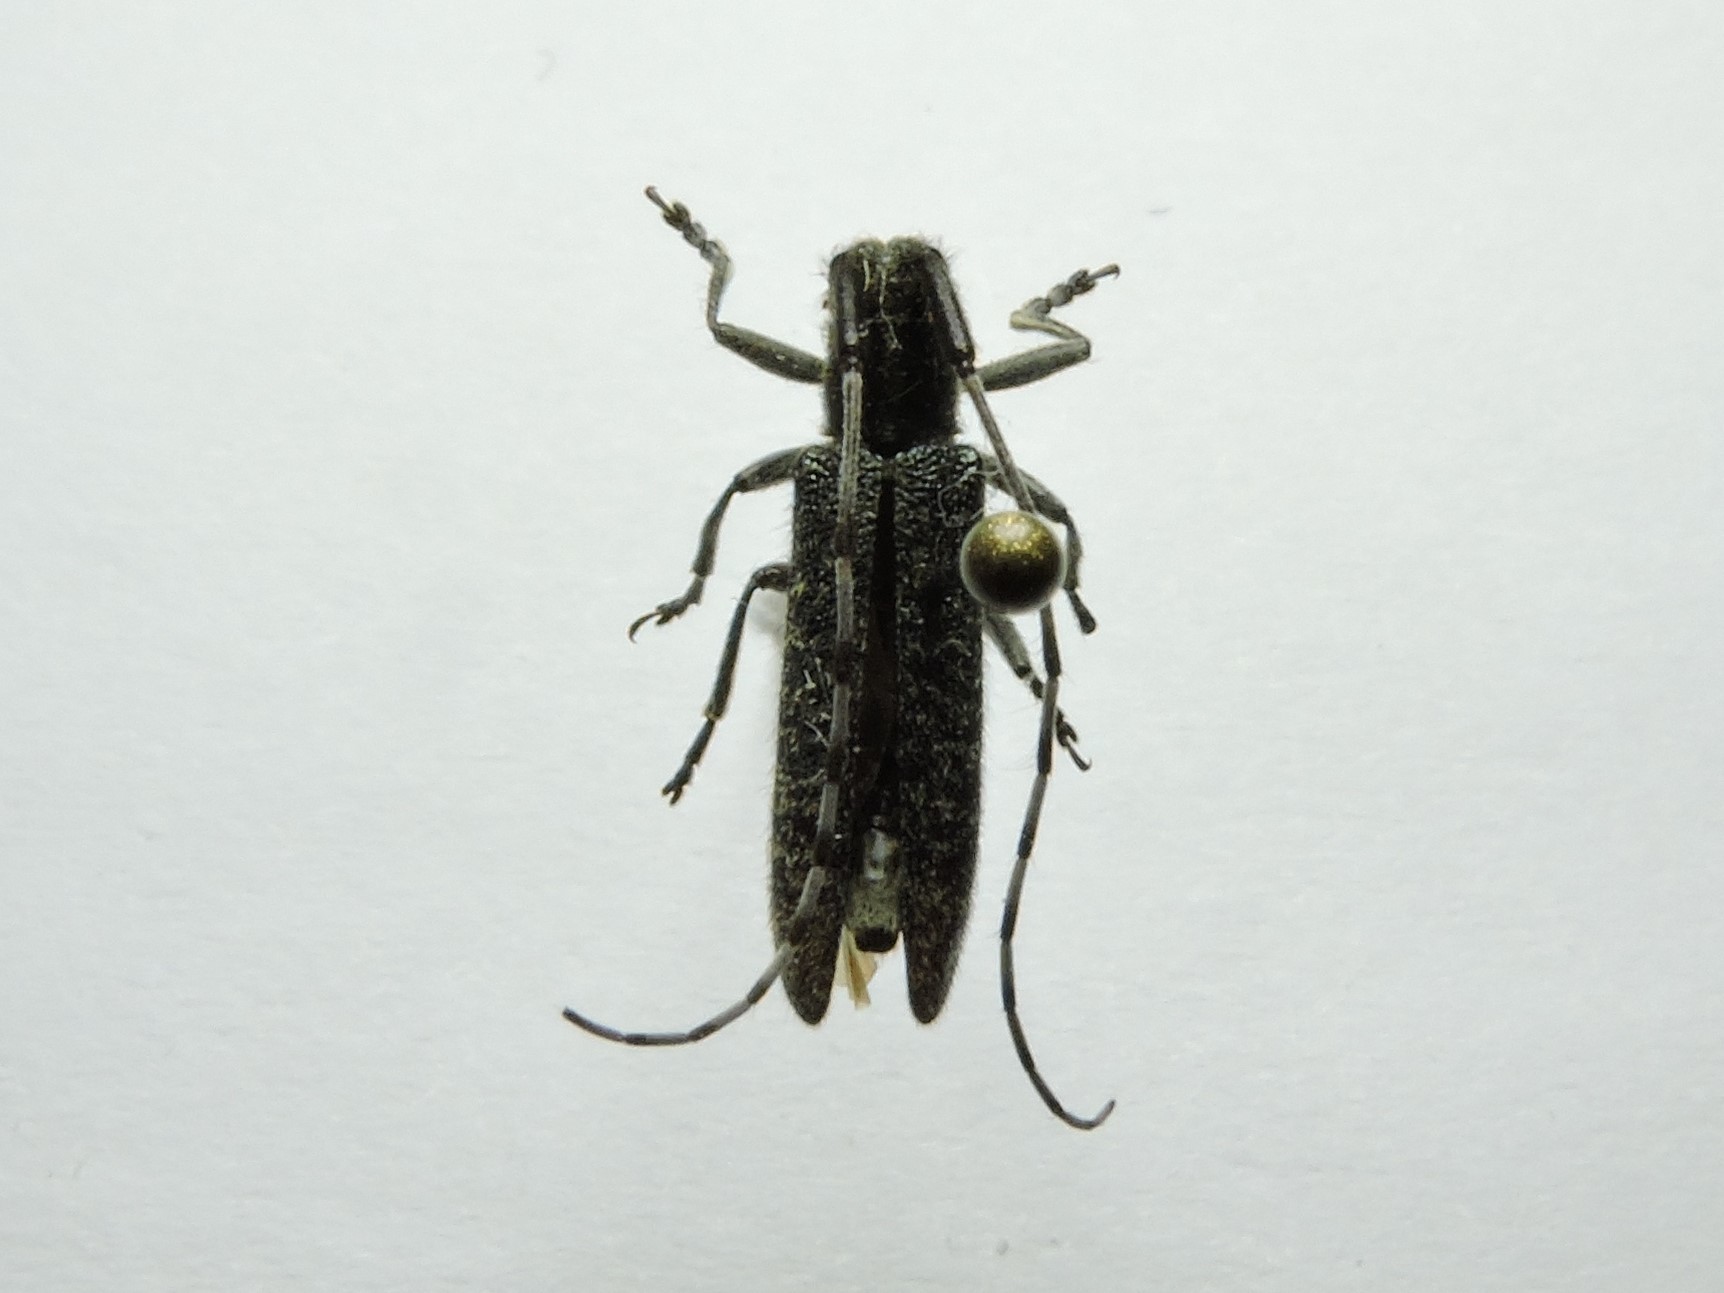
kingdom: Animalia
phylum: Arthropoda
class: Insecta
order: Coleoptera
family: Cerambycidae
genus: Agapanthia
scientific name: Agapanthia villosoviridescens
